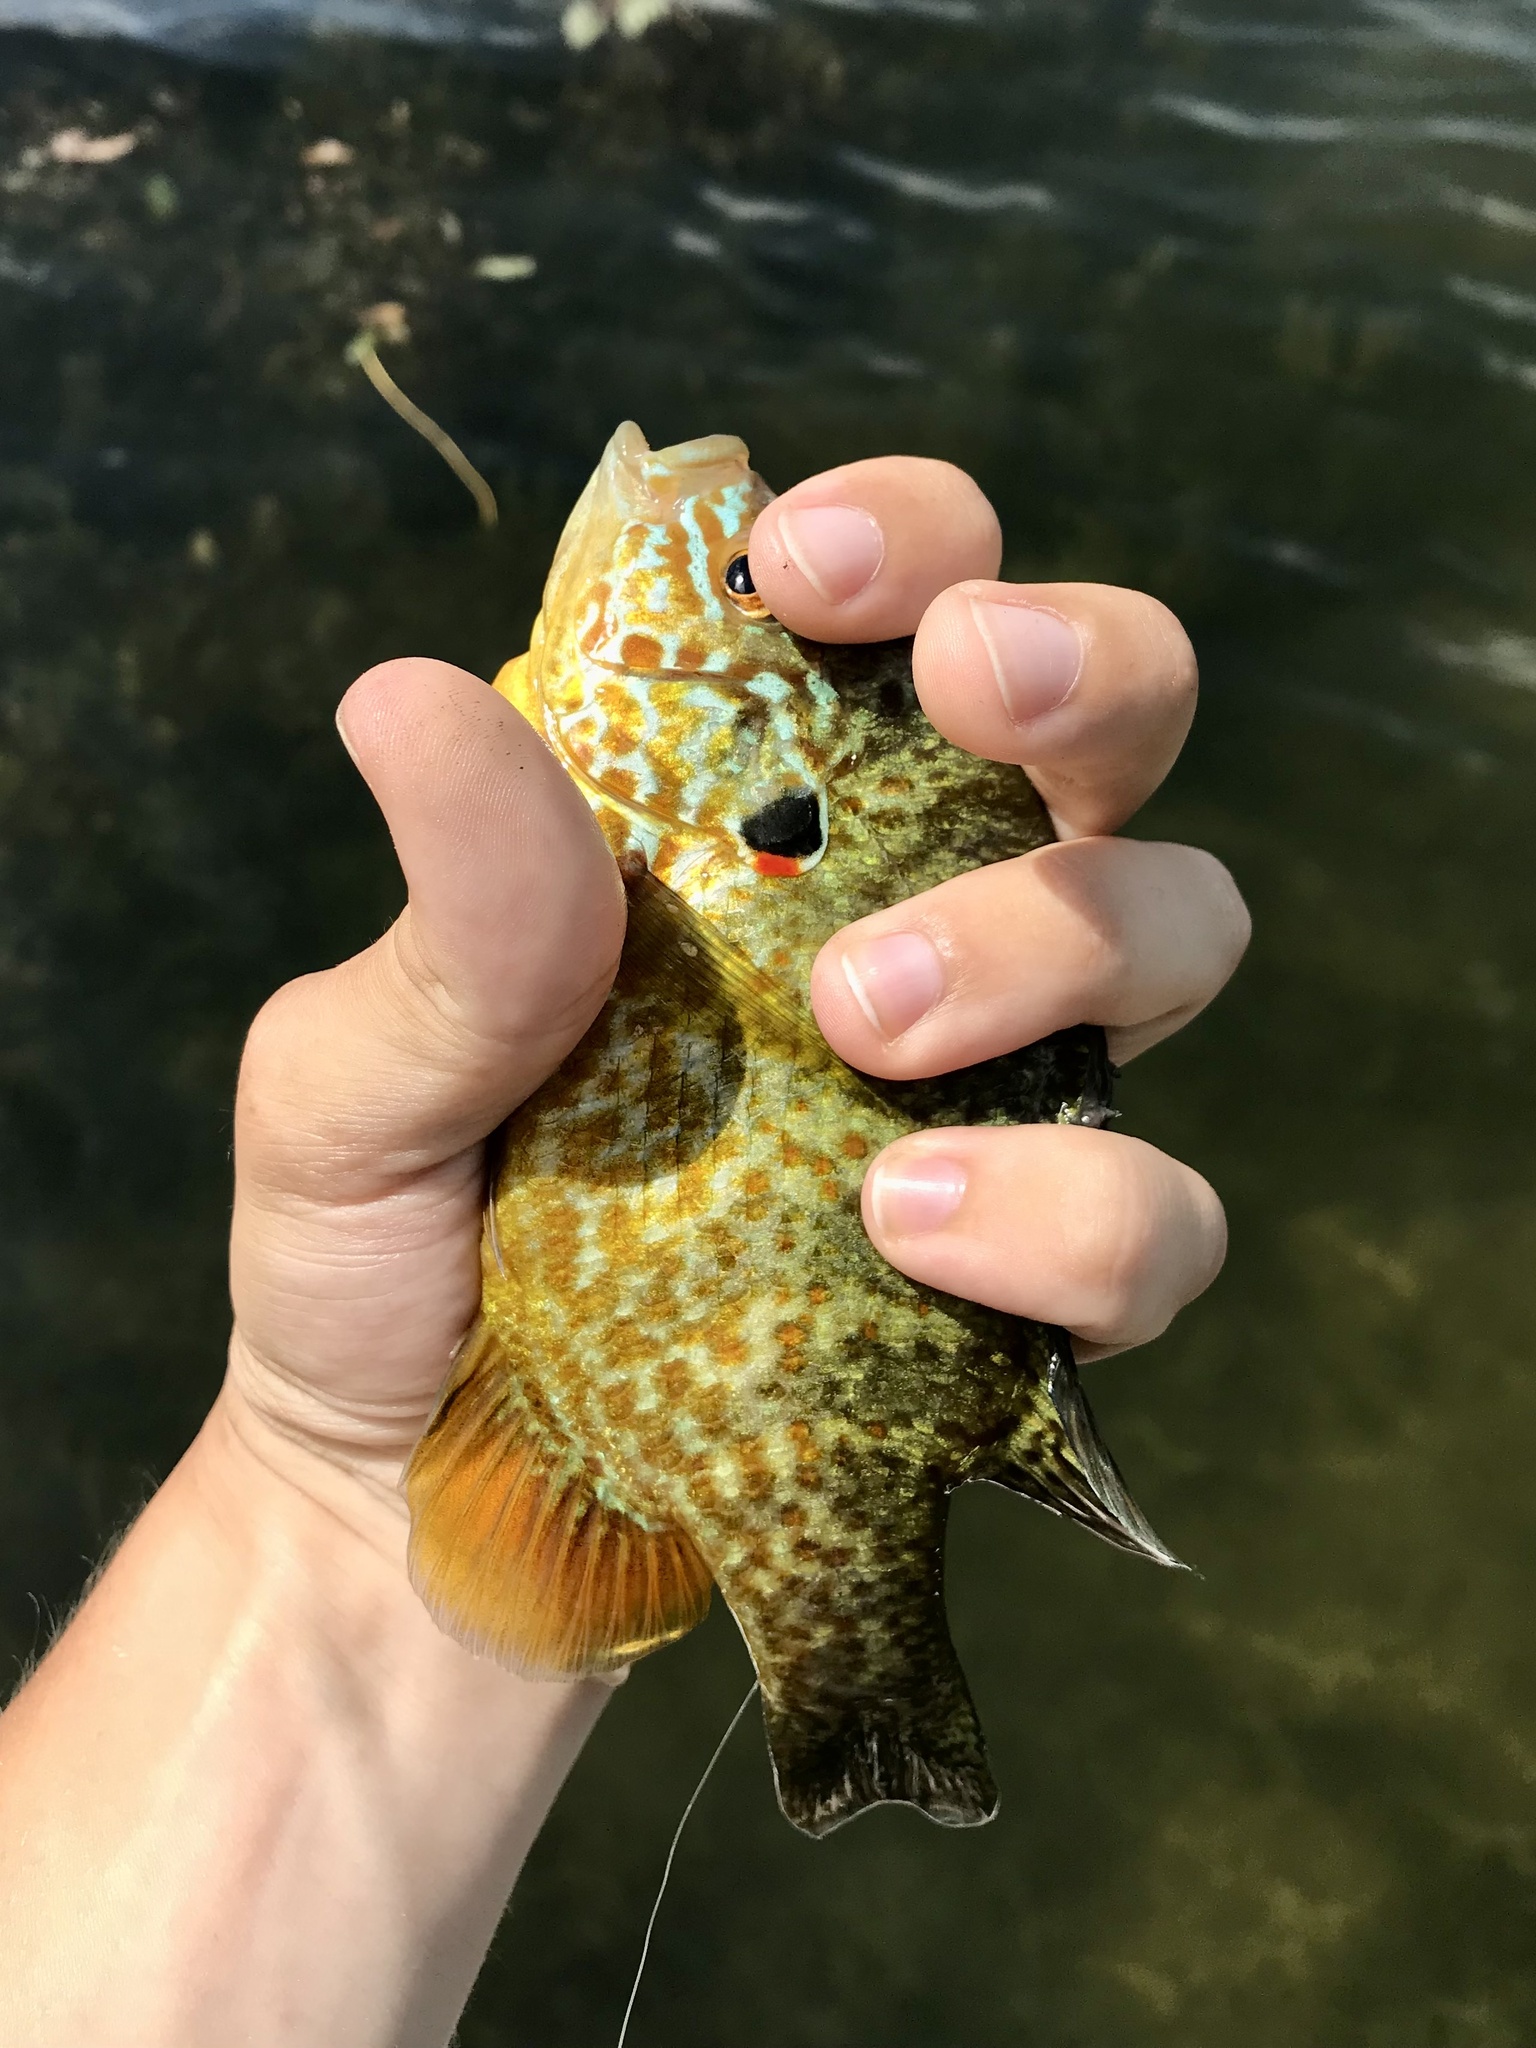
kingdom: Animalia
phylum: Chordata
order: Perciformes
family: Centrarchidae
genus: Lepomis
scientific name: Lepomis gibbosus
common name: Pumpkinseed
